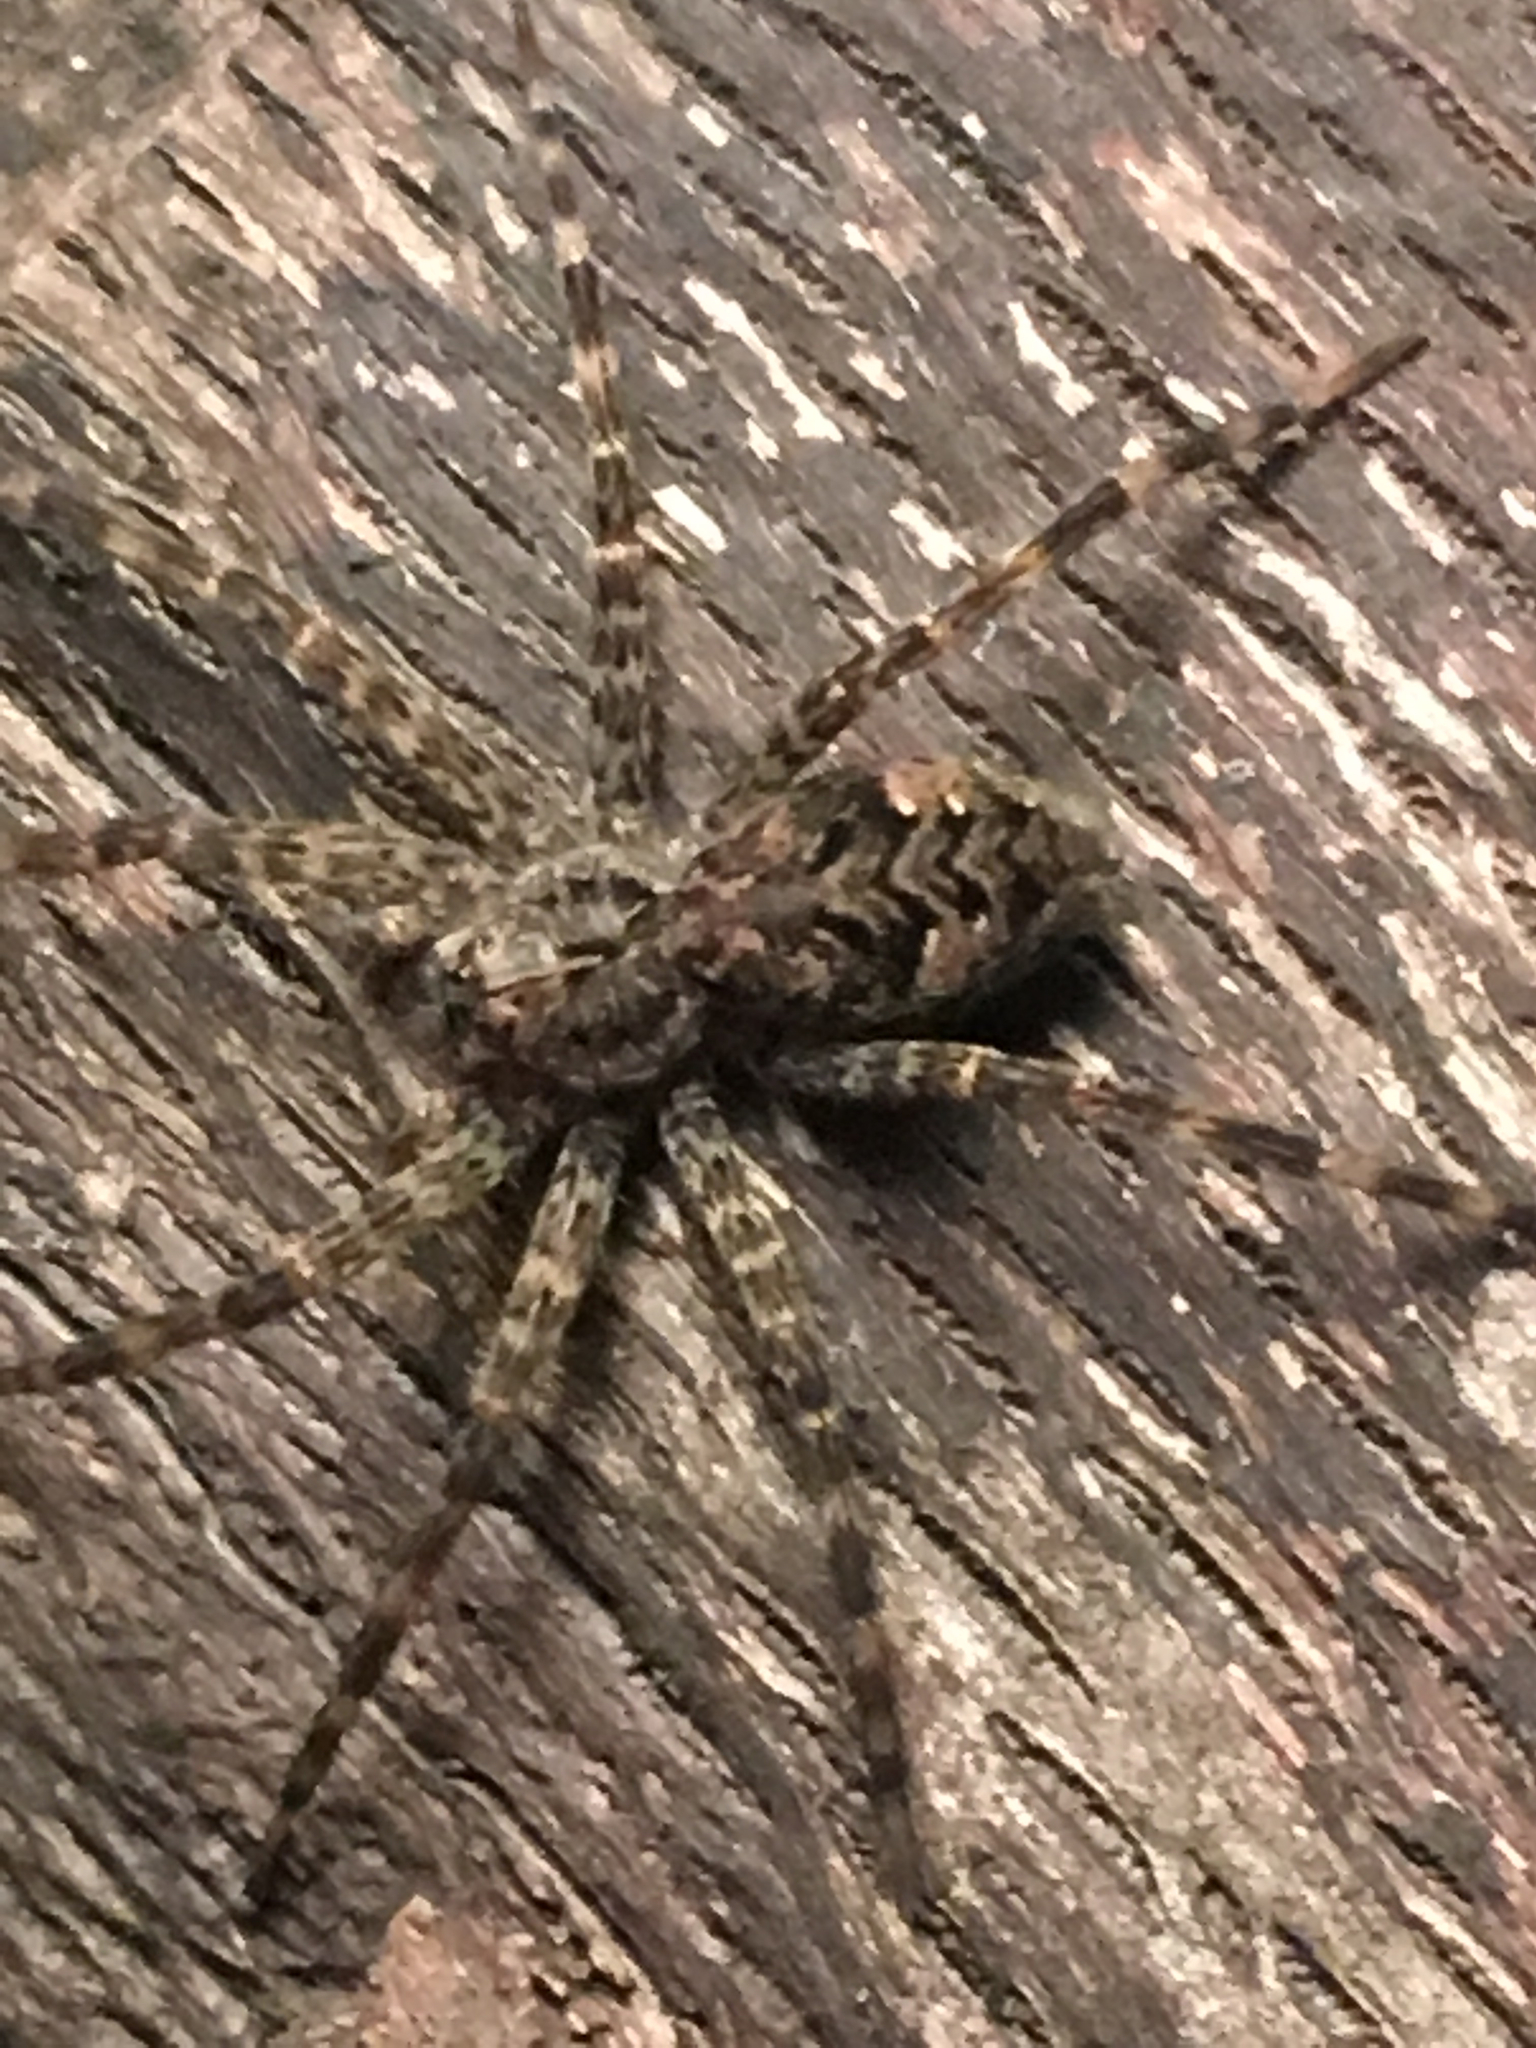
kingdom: Animalia
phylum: Arthropoda
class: Arachnida
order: Araneae
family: Pisauridae
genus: Dolomedes
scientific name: Dolomedes tenebrosus
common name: Dark fishing spider
